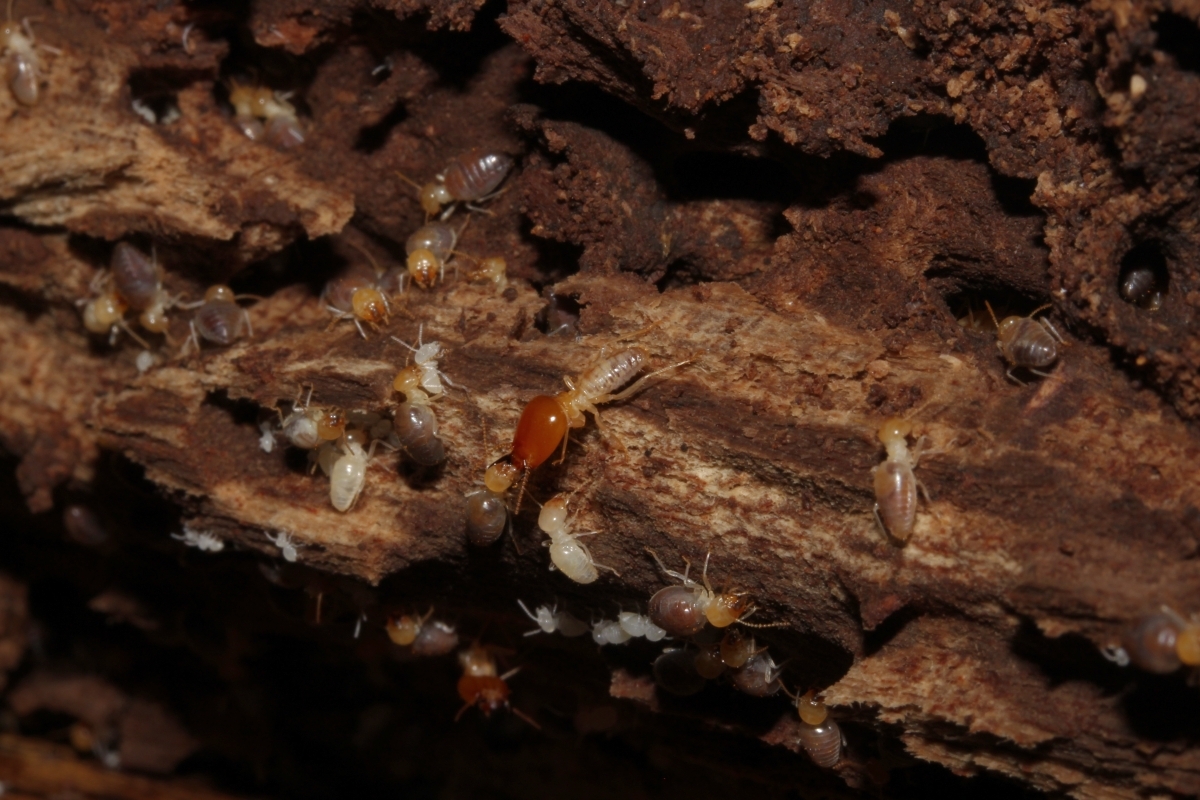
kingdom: Animalia
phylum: Arthropoda
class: Insecta
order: Blattodea
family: Termitidae
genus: Cornitermes
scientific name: Cornitermes pugnax
